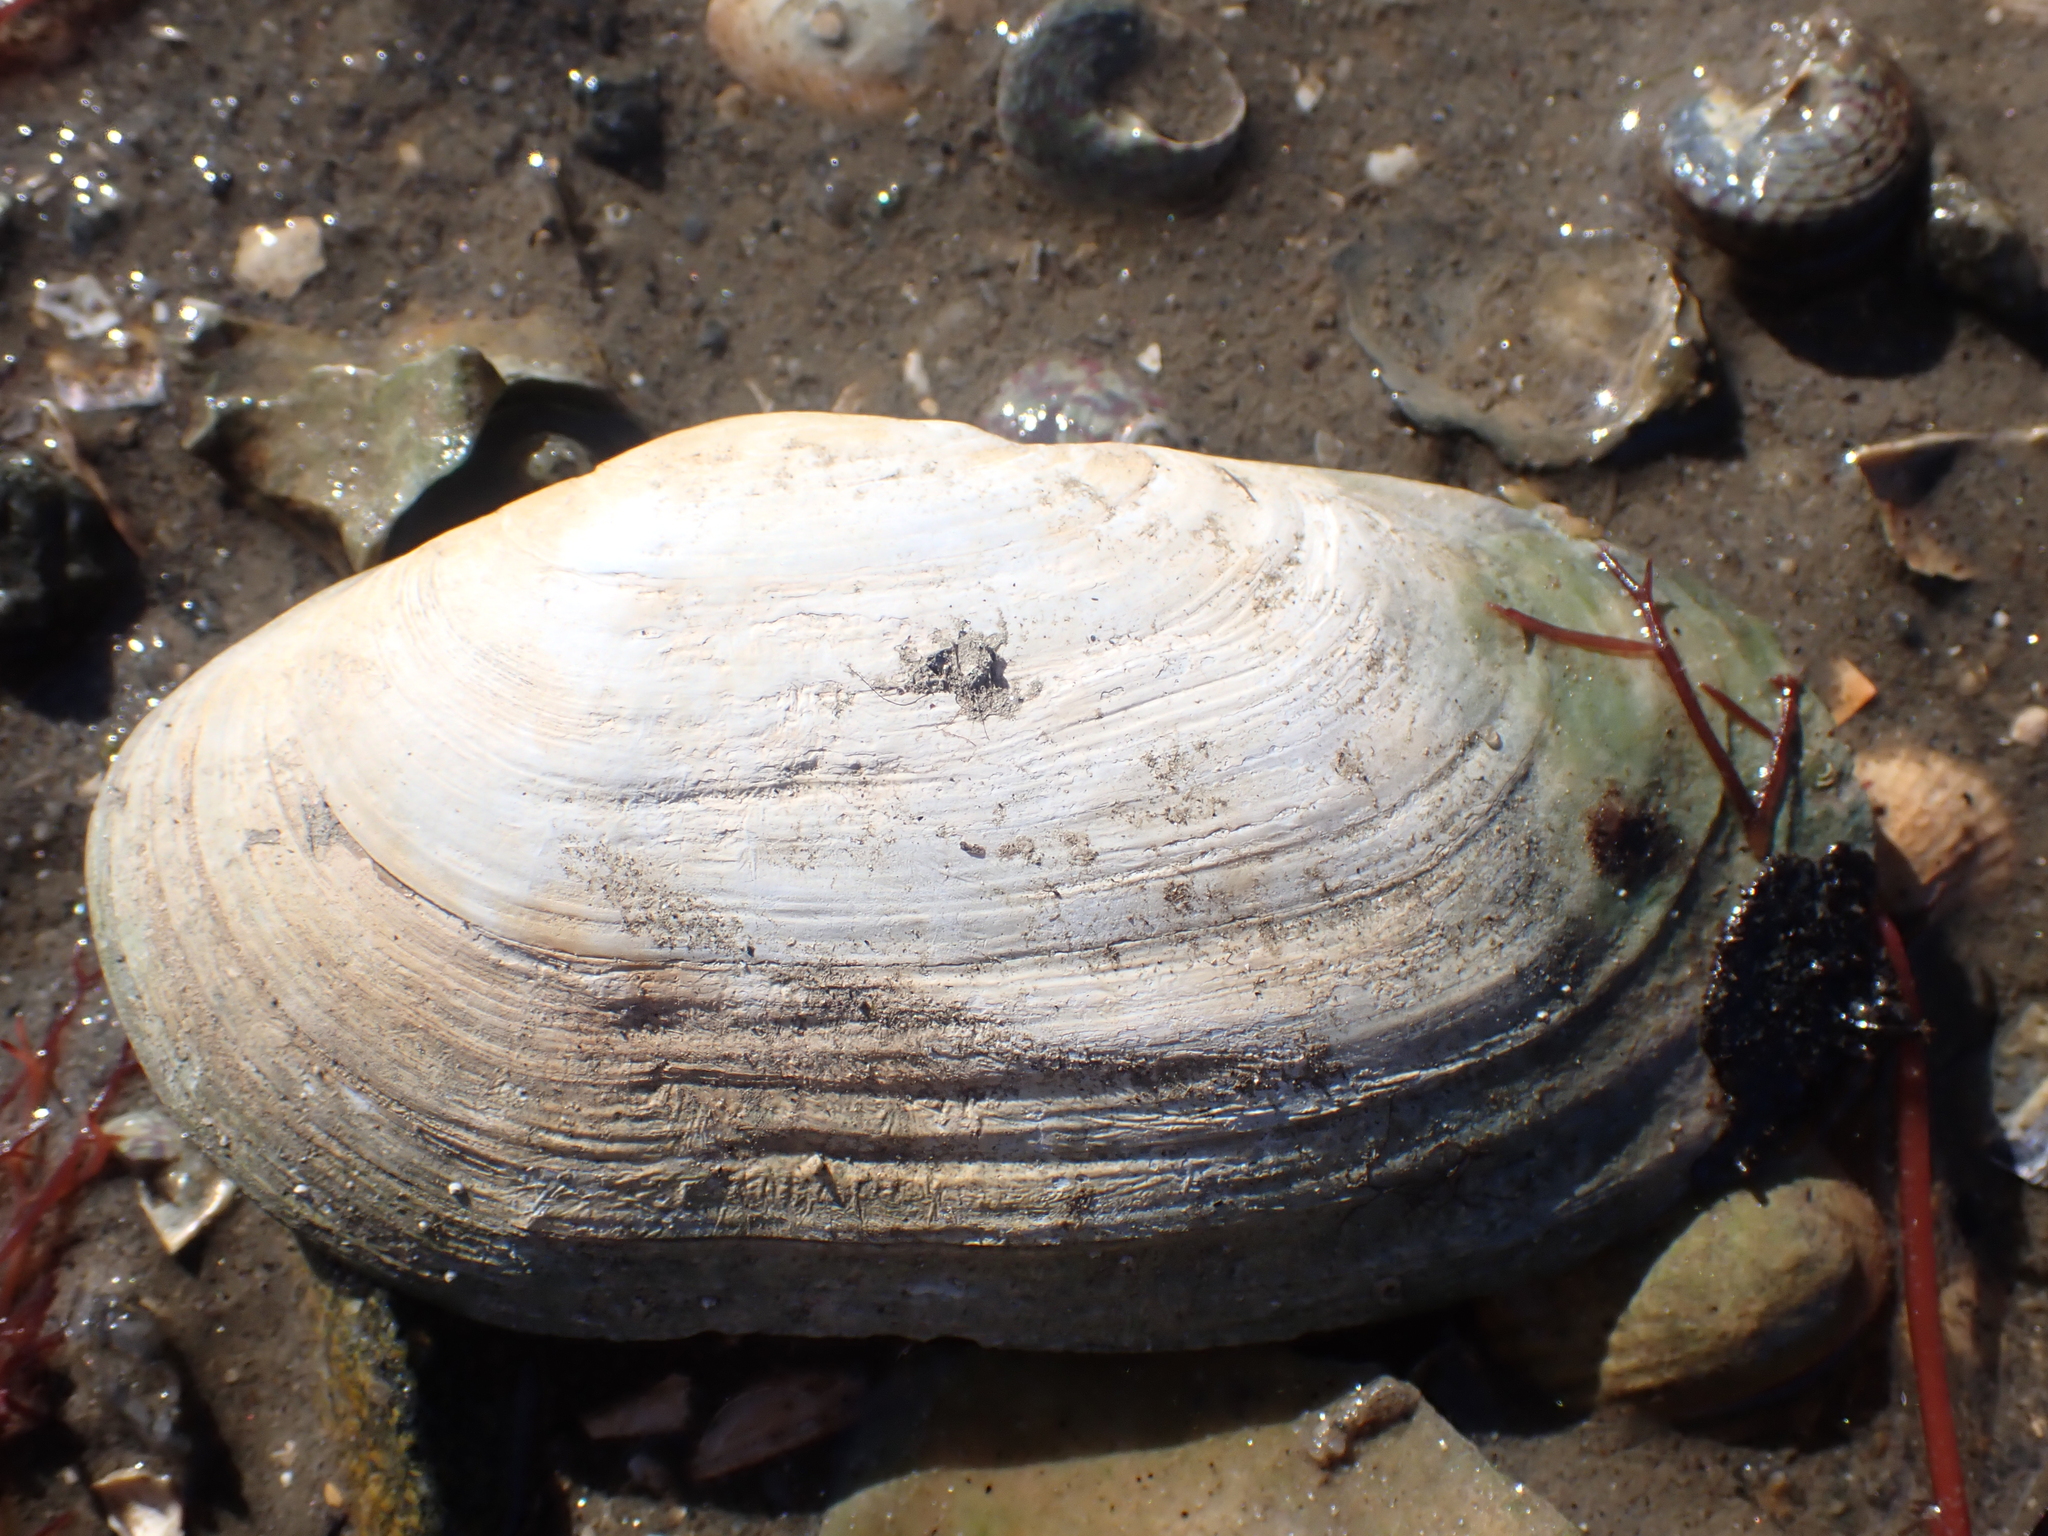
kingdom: Animalia
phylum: Mollusca
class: Bivalvia
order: Venerida
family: Mactridae
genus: Lutraria
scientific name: Lutraria lutraria
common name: Common otter shell
